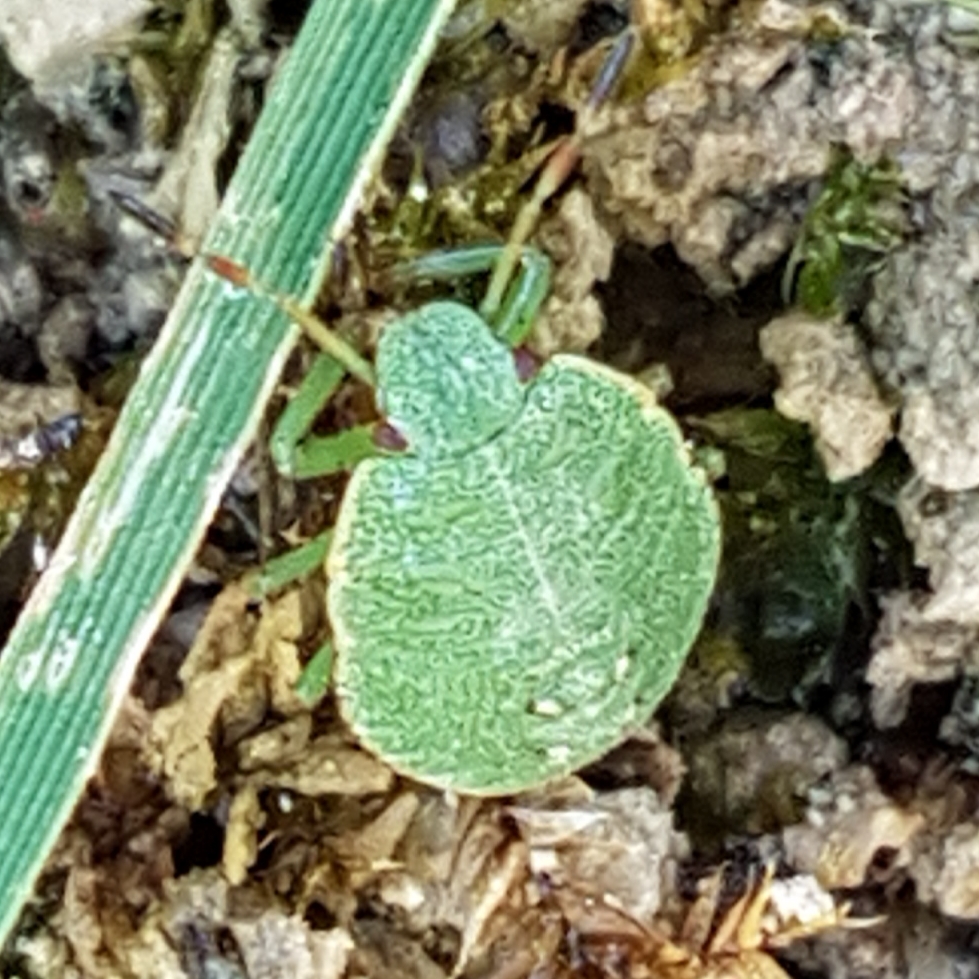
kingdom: Animalia
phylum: Arthropoda
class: Insecta
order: Hemiptera
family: Pentatomidae
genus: Palomena
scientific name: Palomena prasina
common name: Green shieldbug
